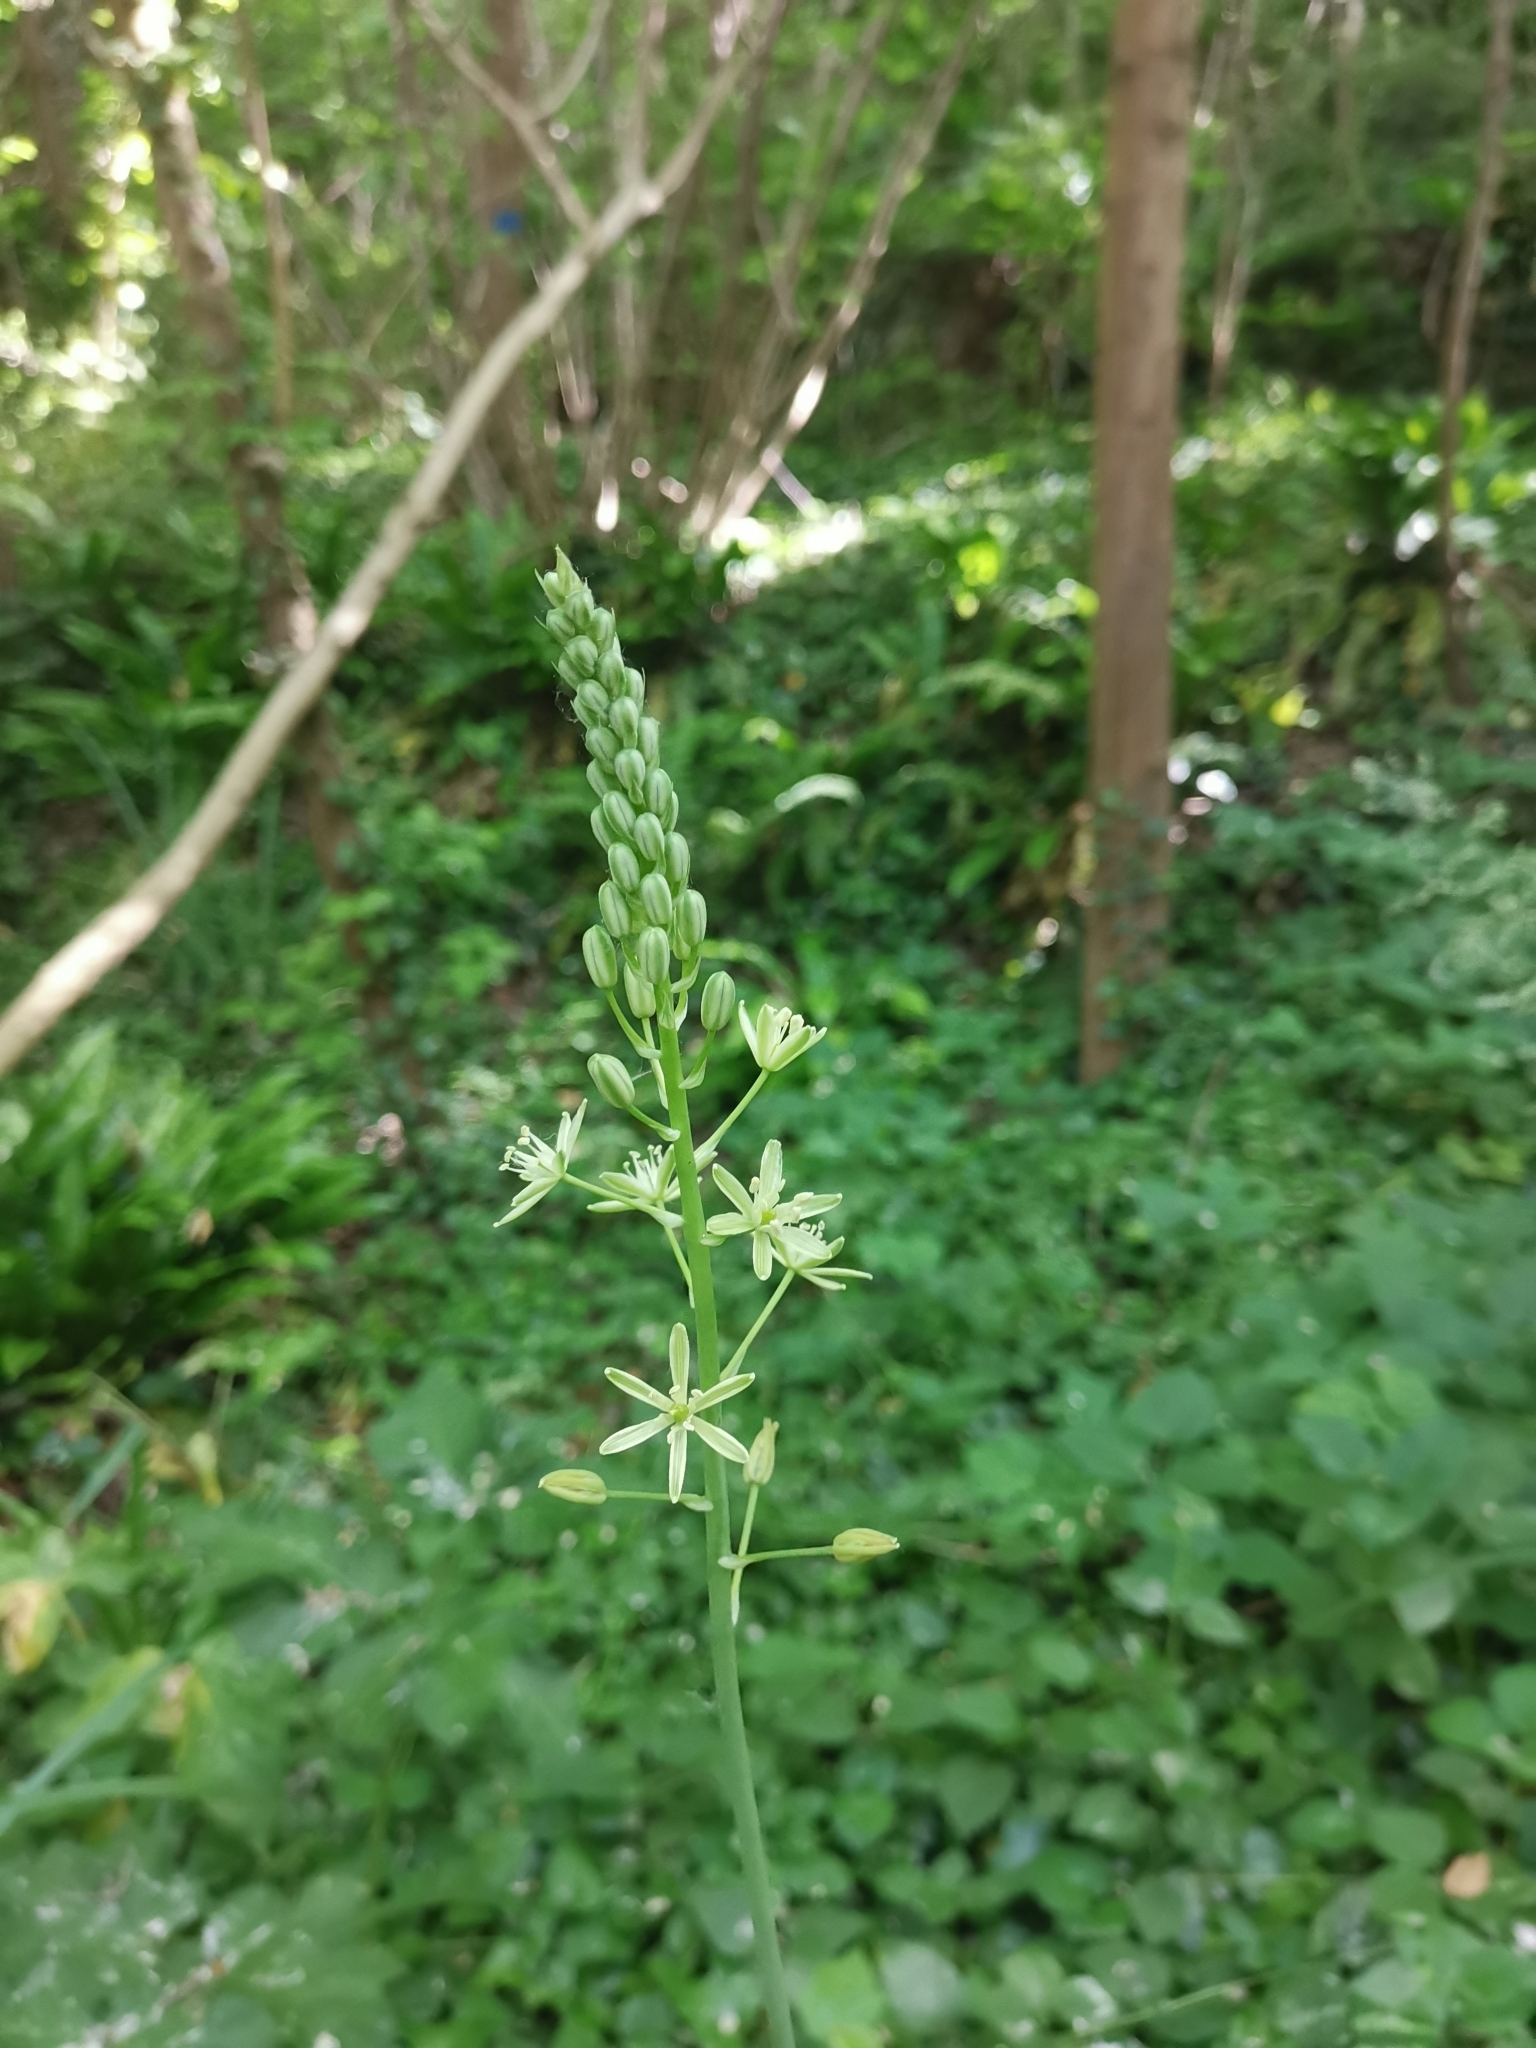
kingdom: Plantae
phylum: Tracheophyta
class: Liliopsida
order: Asparagales
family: Asparagaceae
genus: Ornithogalum
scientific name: Ornithogalum pyrenaicum
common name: Spiked star-of-bethlehem
